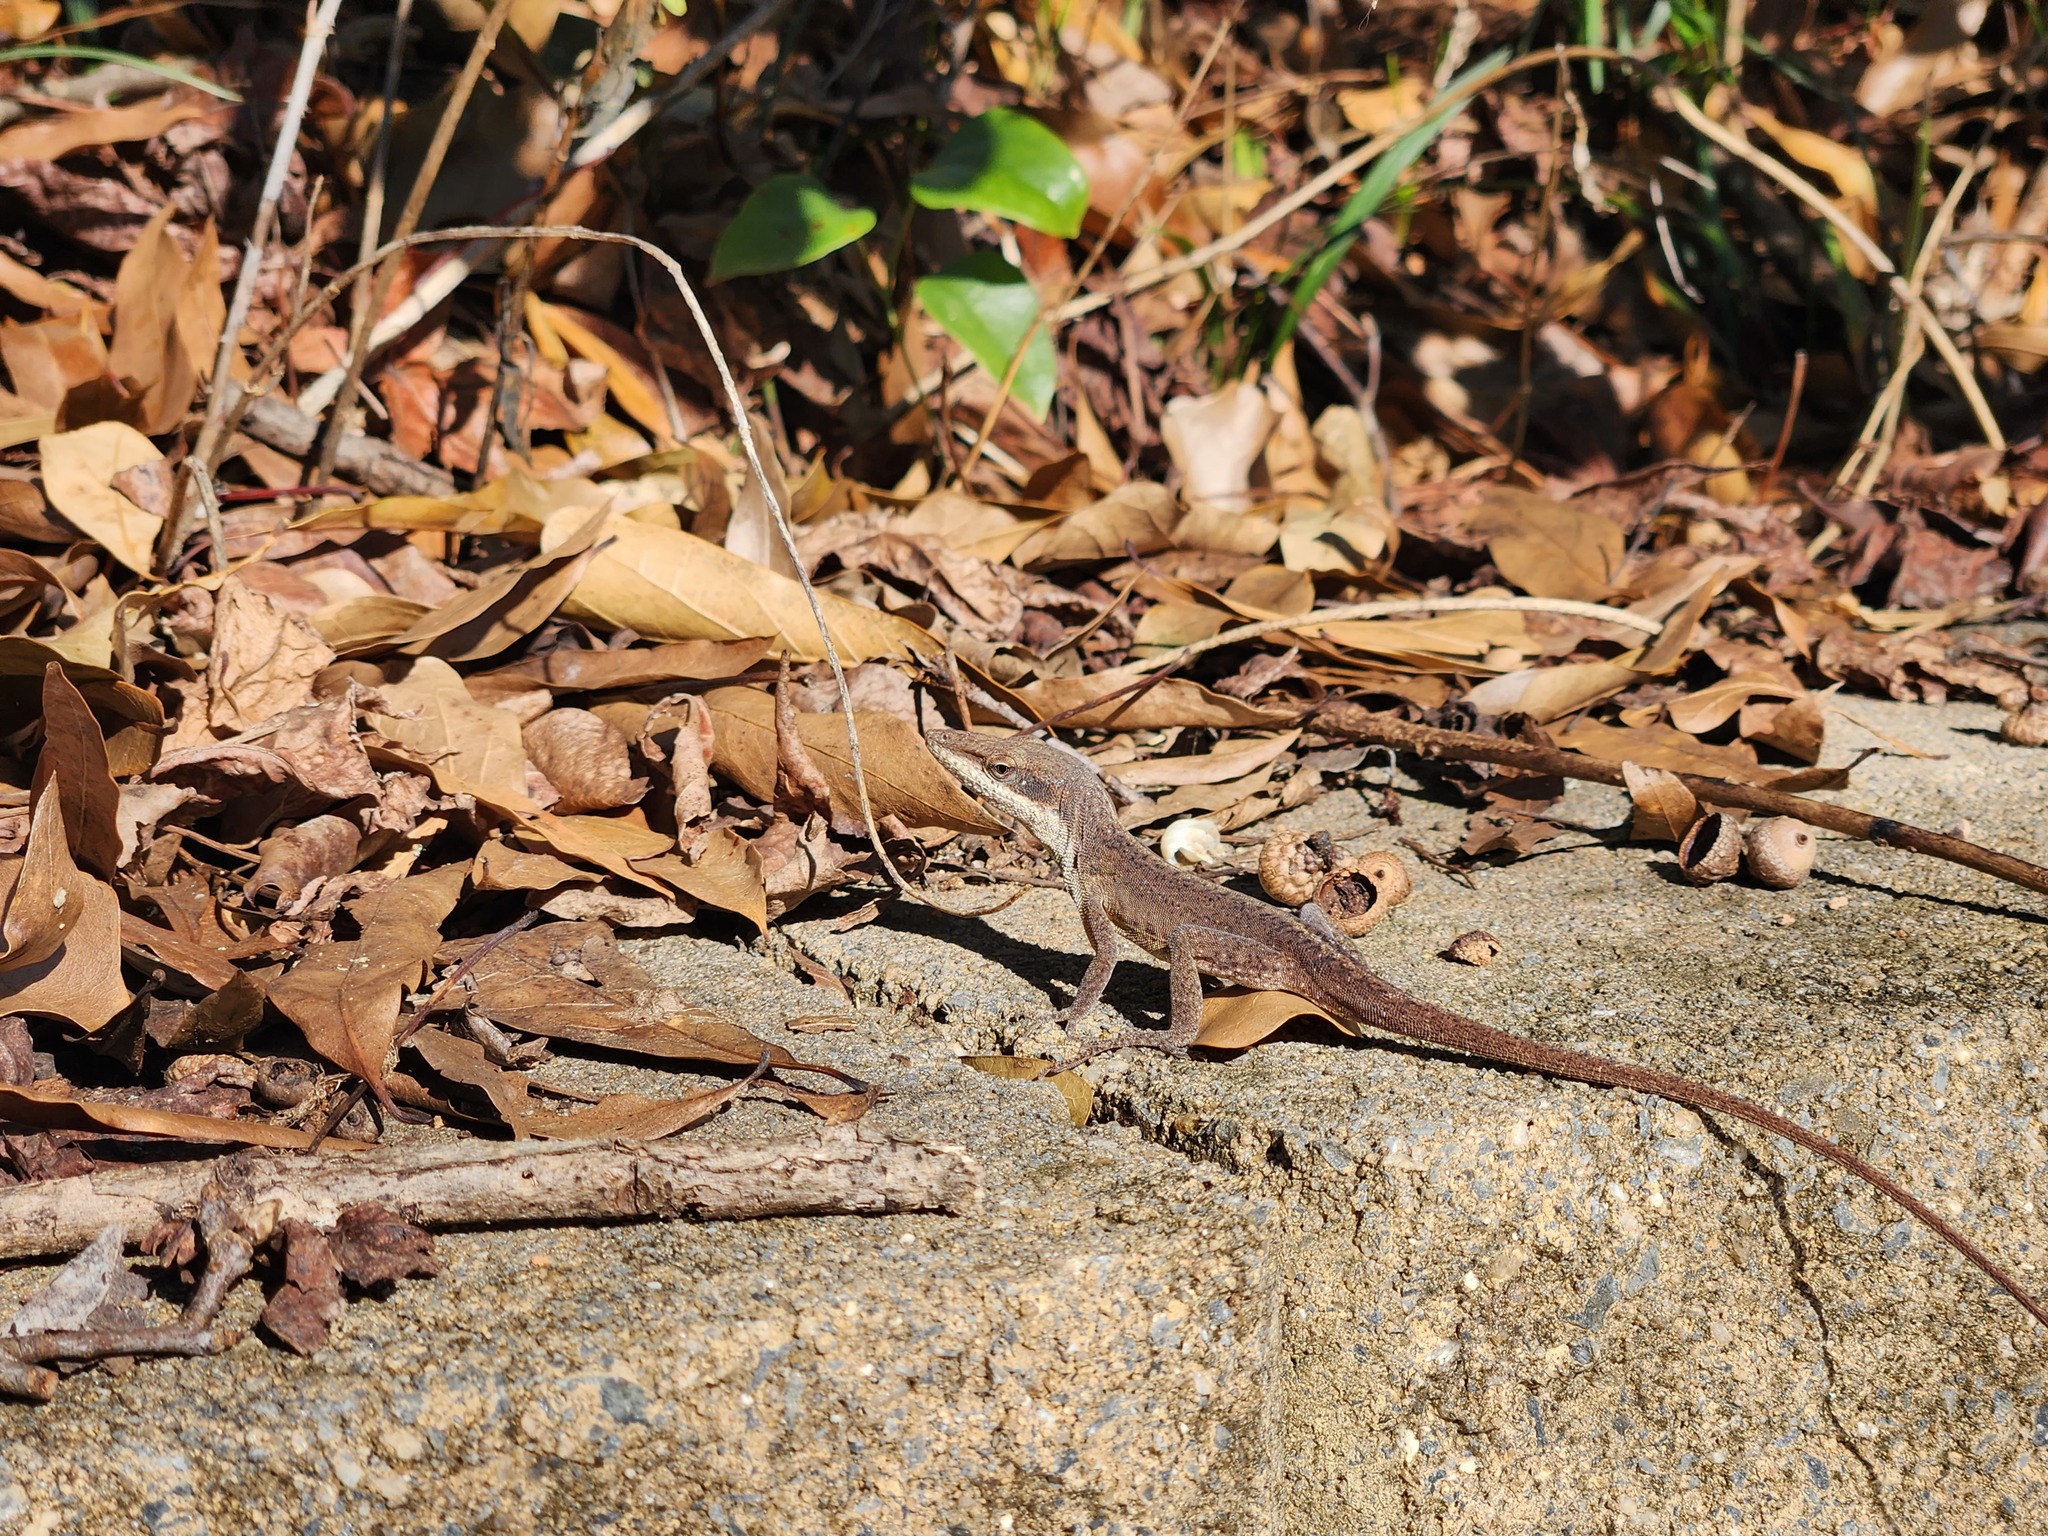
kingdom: Animalia
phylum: Chordata
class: Squamata
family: Dactyloidae
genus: Anolis
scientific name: Anolis carolinensis
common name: Green anole
